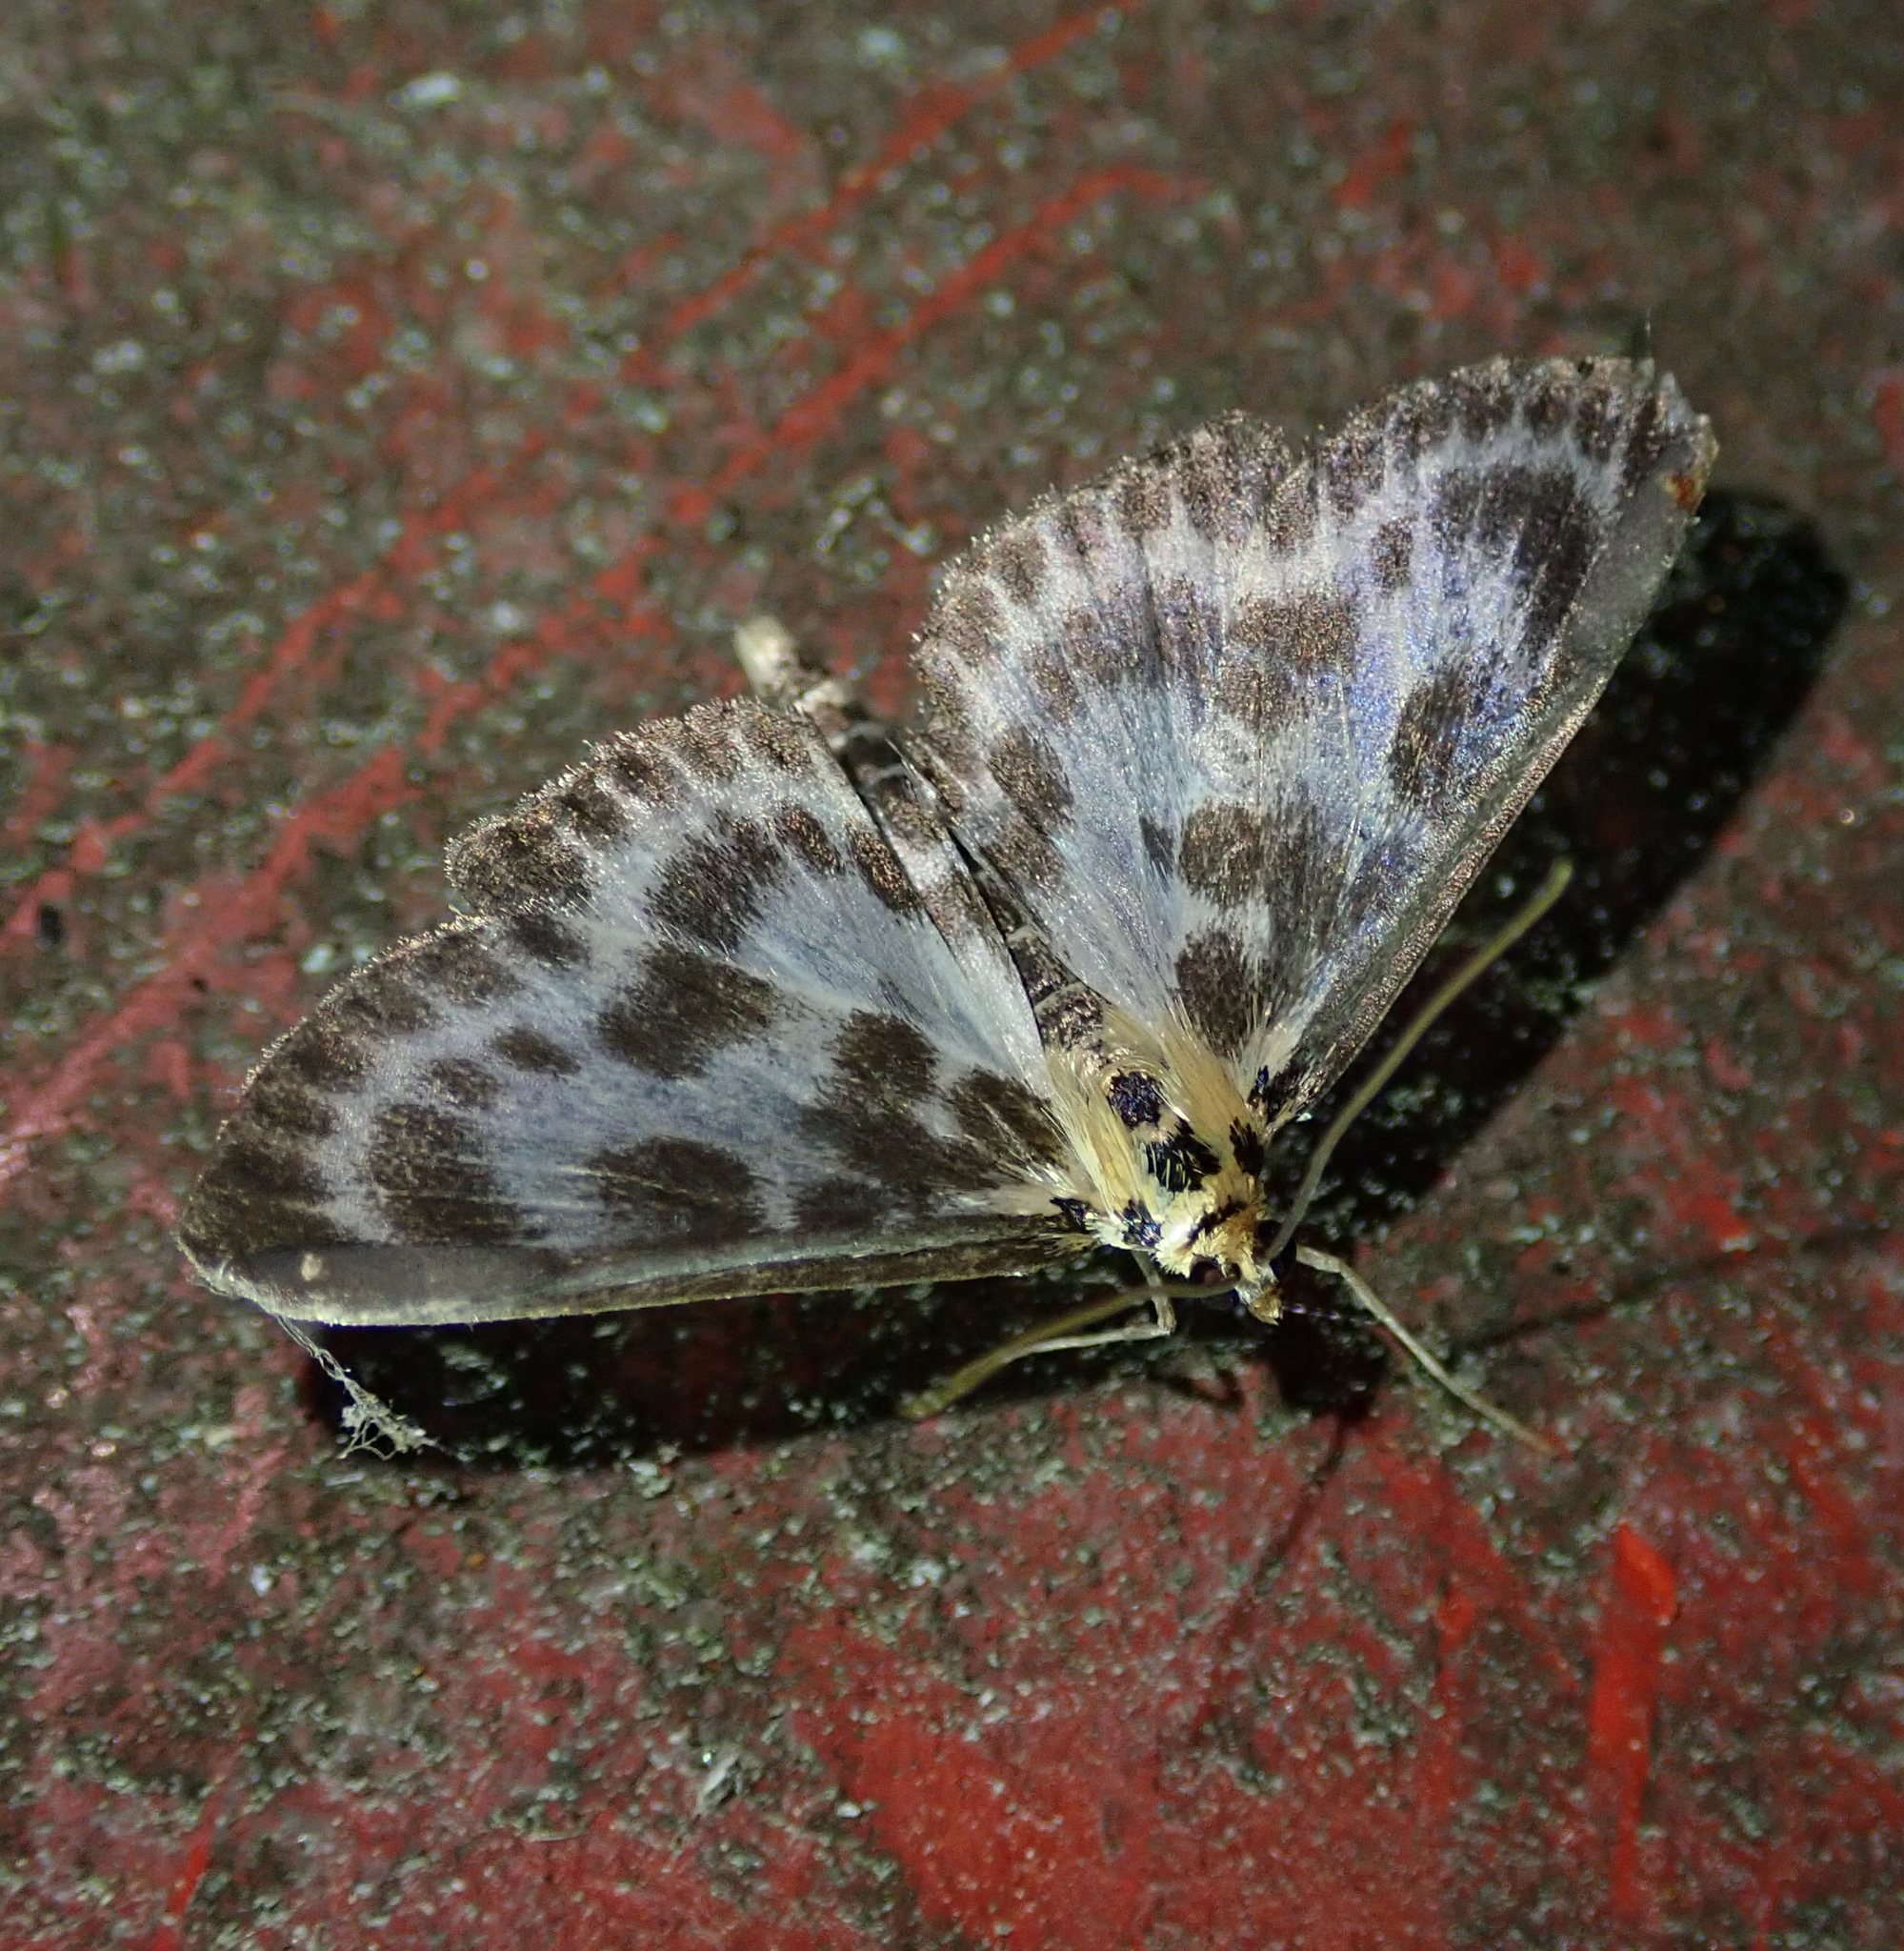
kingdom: Animalia
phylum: Arthropoda
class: Insecta
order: Lepidoptera
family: Crambidae
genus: Anania
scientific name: Anania hortulata
